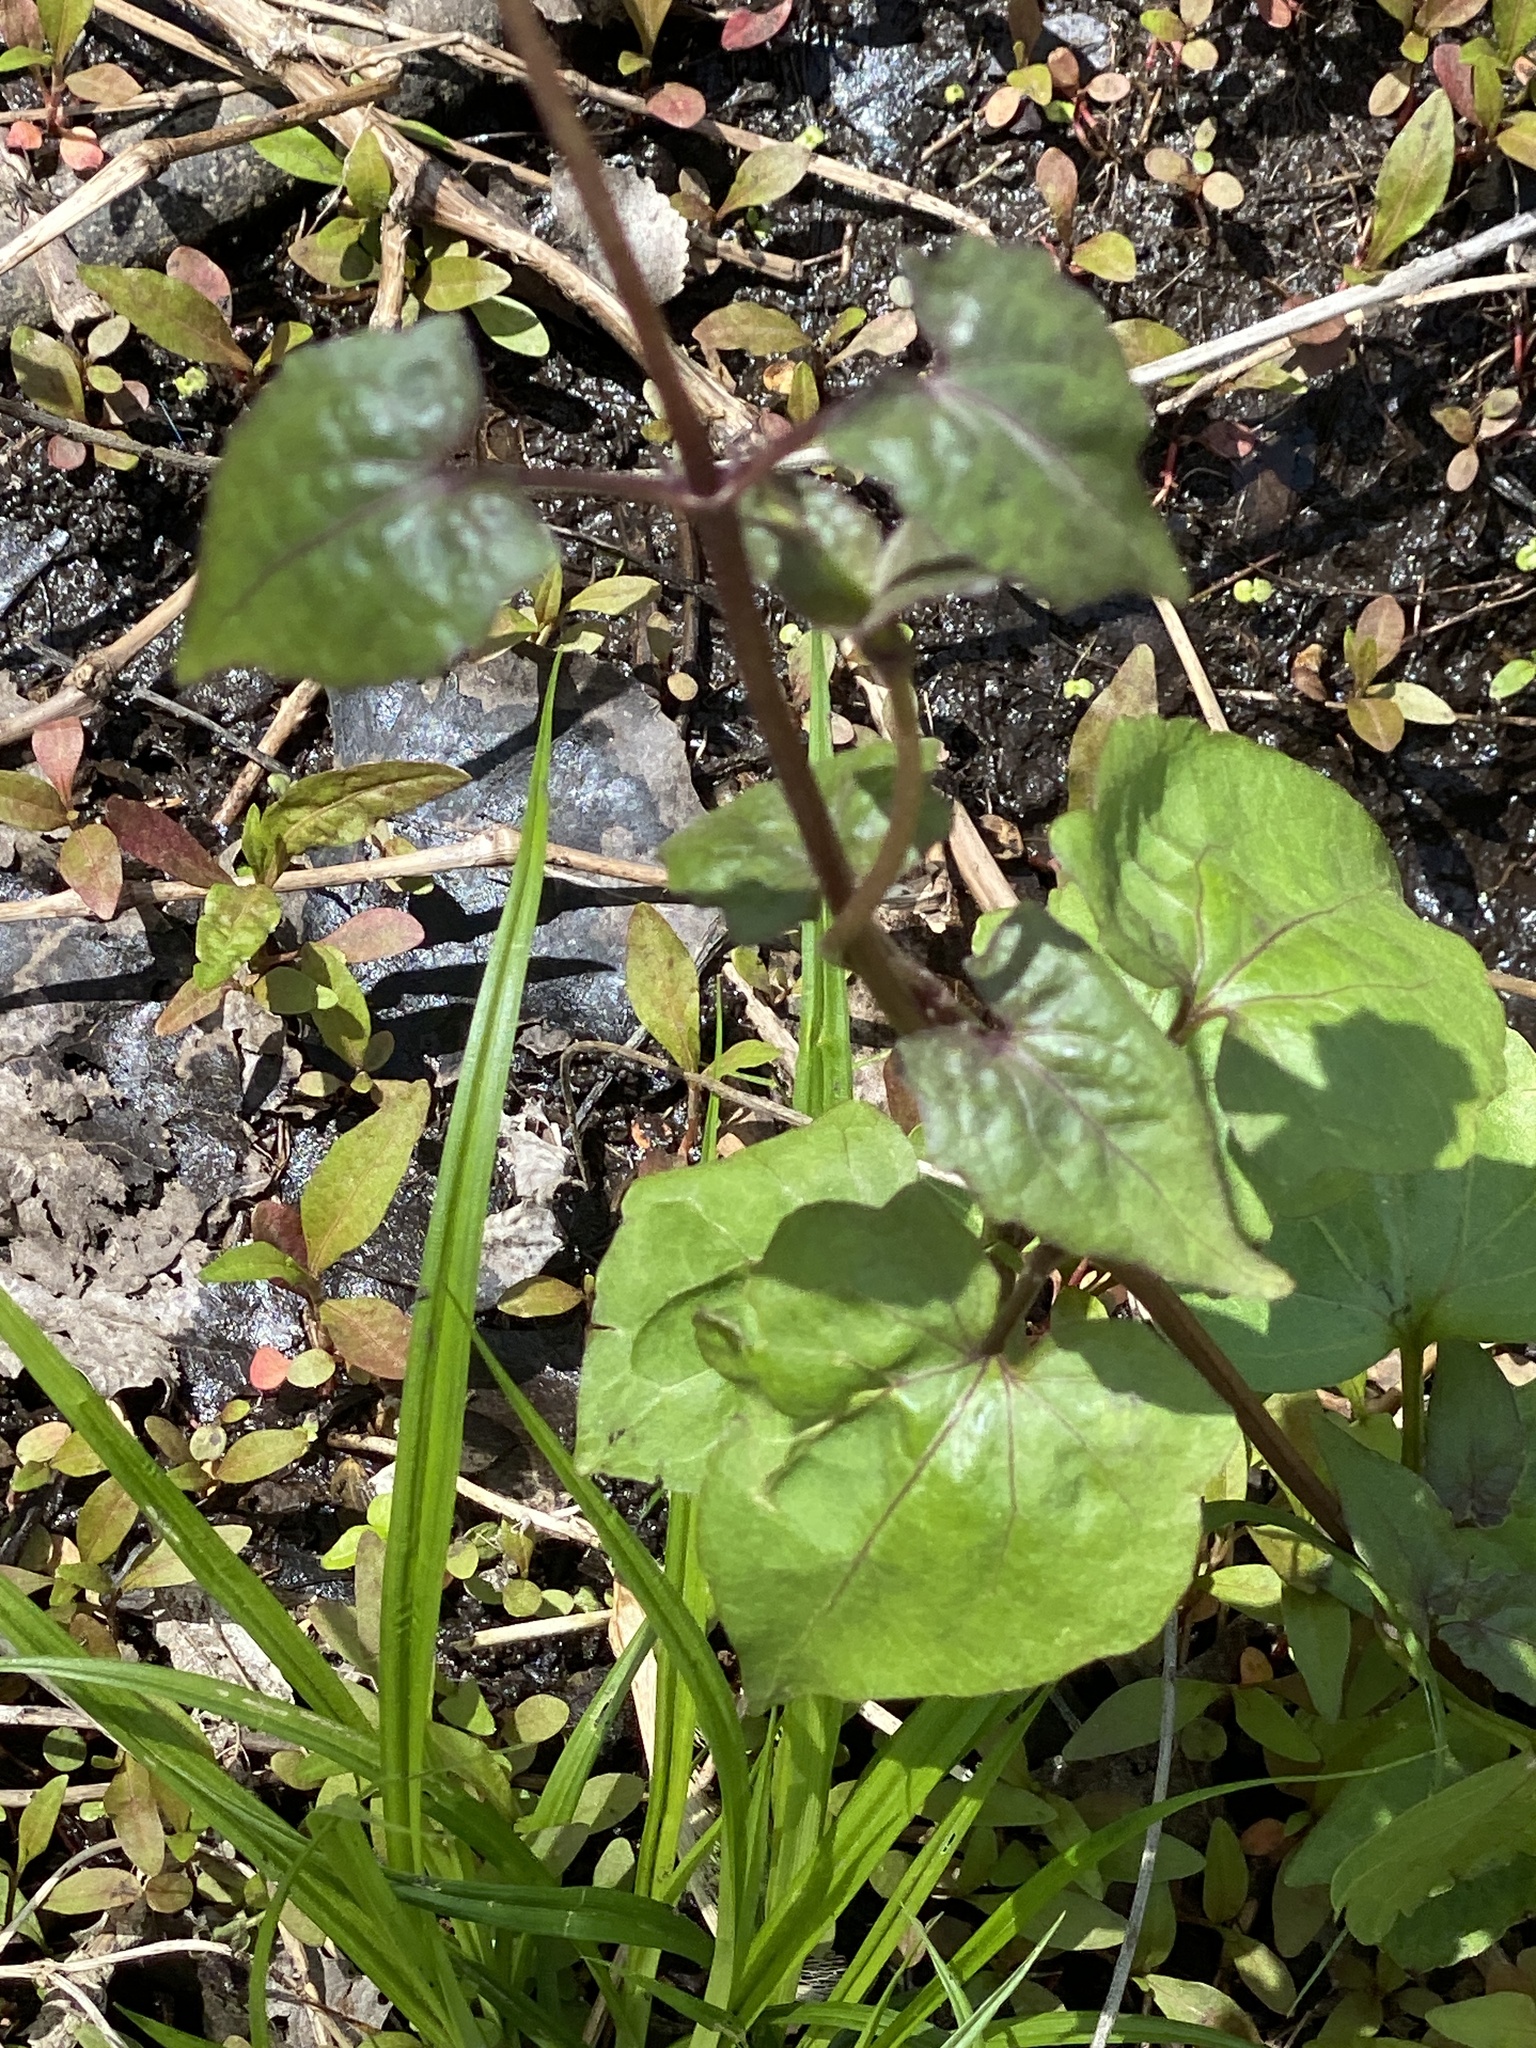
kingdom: Plantae
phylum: Tracheophyta
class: Magnoliopsida
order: Asterales
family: Asteraceae
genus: Mikania
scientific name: Mikania scandens
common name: Climbing hempvine
